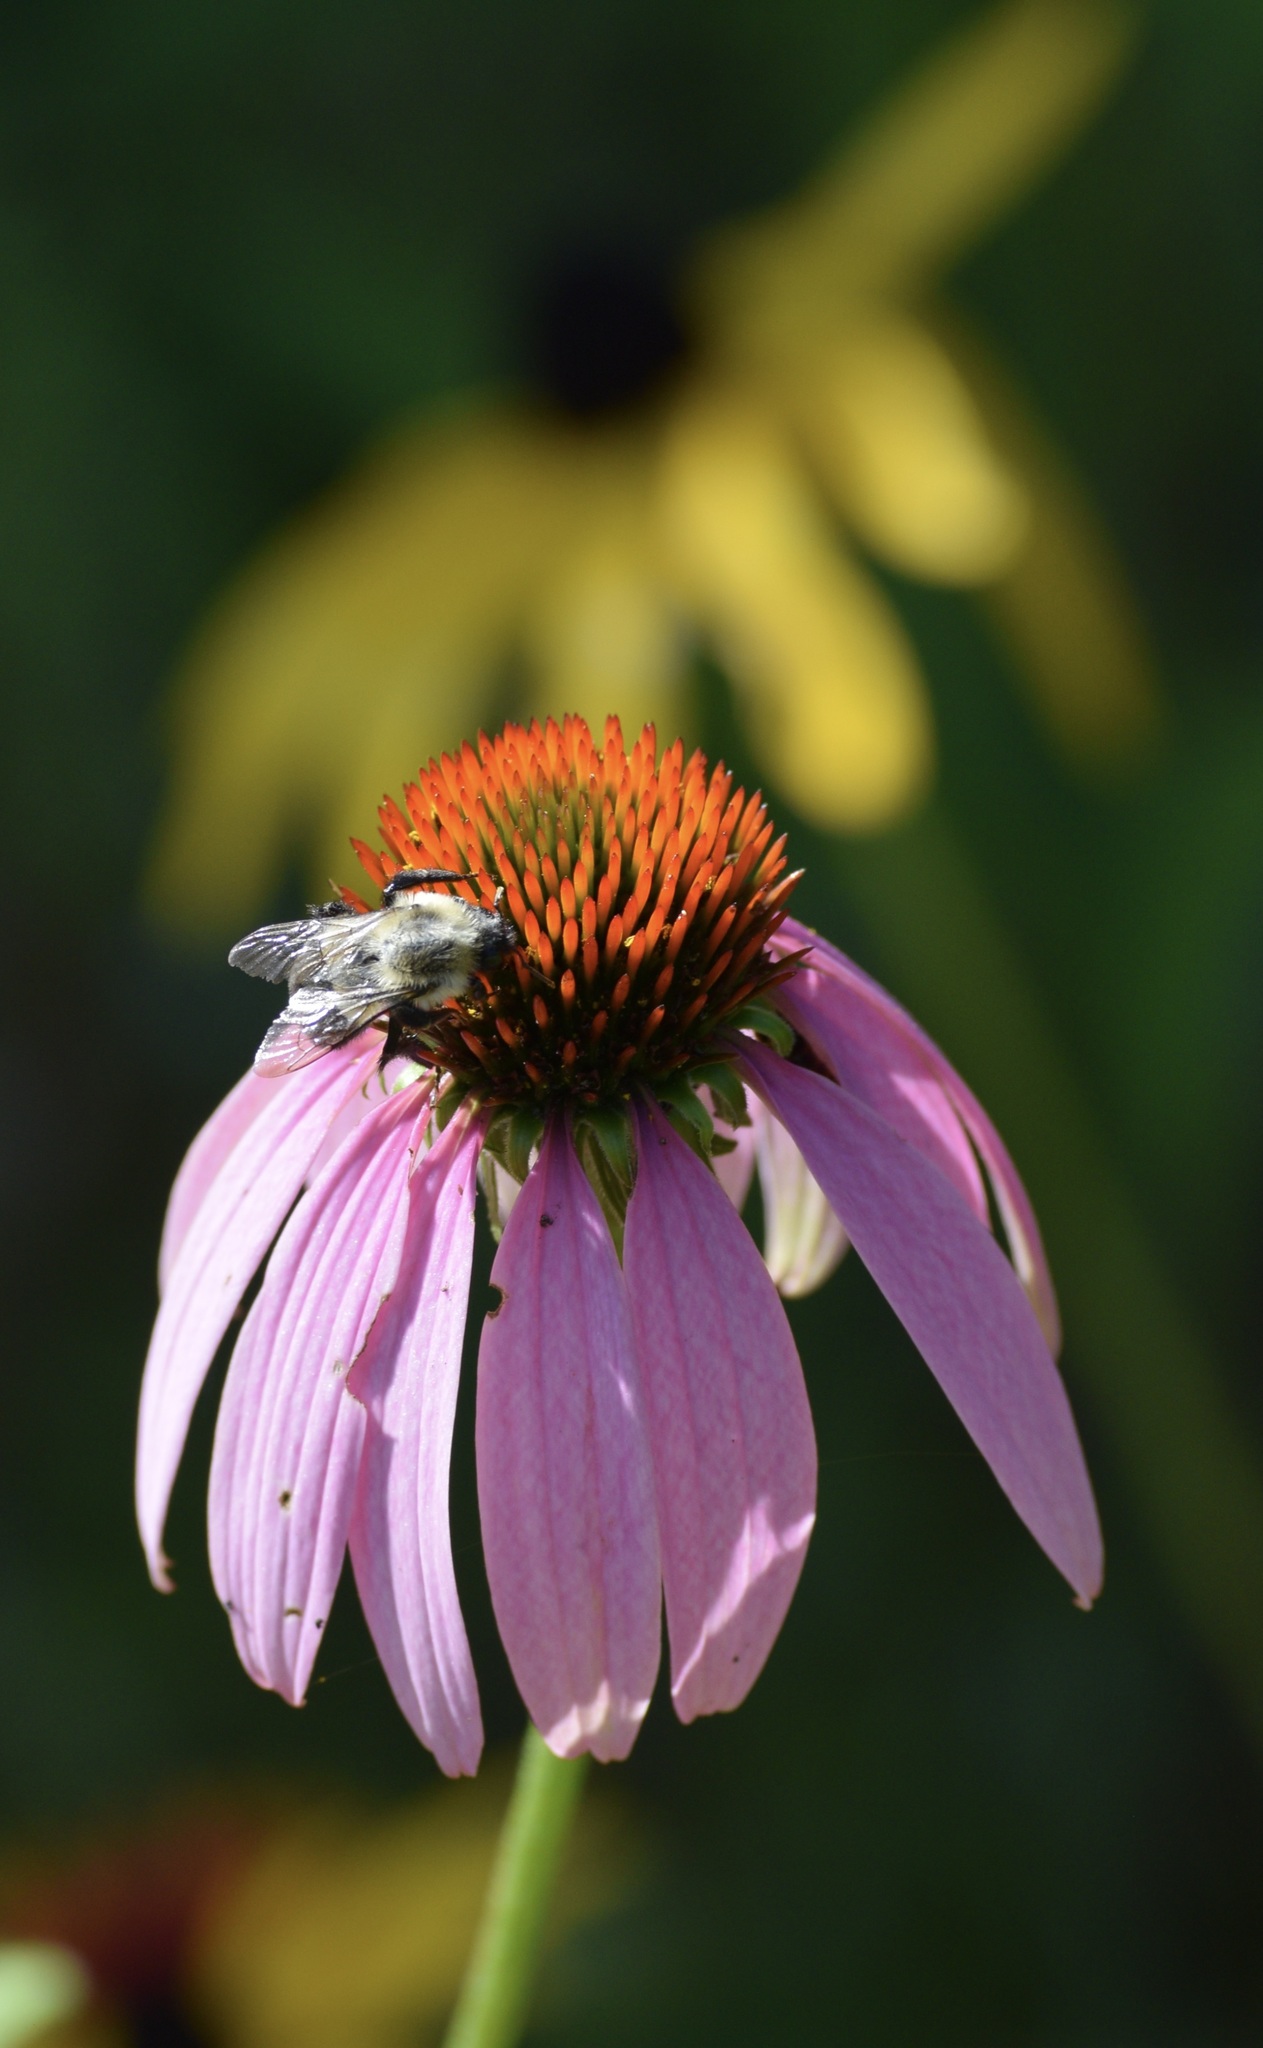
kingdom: Animalia
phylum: Arthropoda
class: Insecta
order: Hymenoptera
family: Apidae
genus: Bombus
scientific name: Bombus impatiens
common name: Common eastern bumble bee
